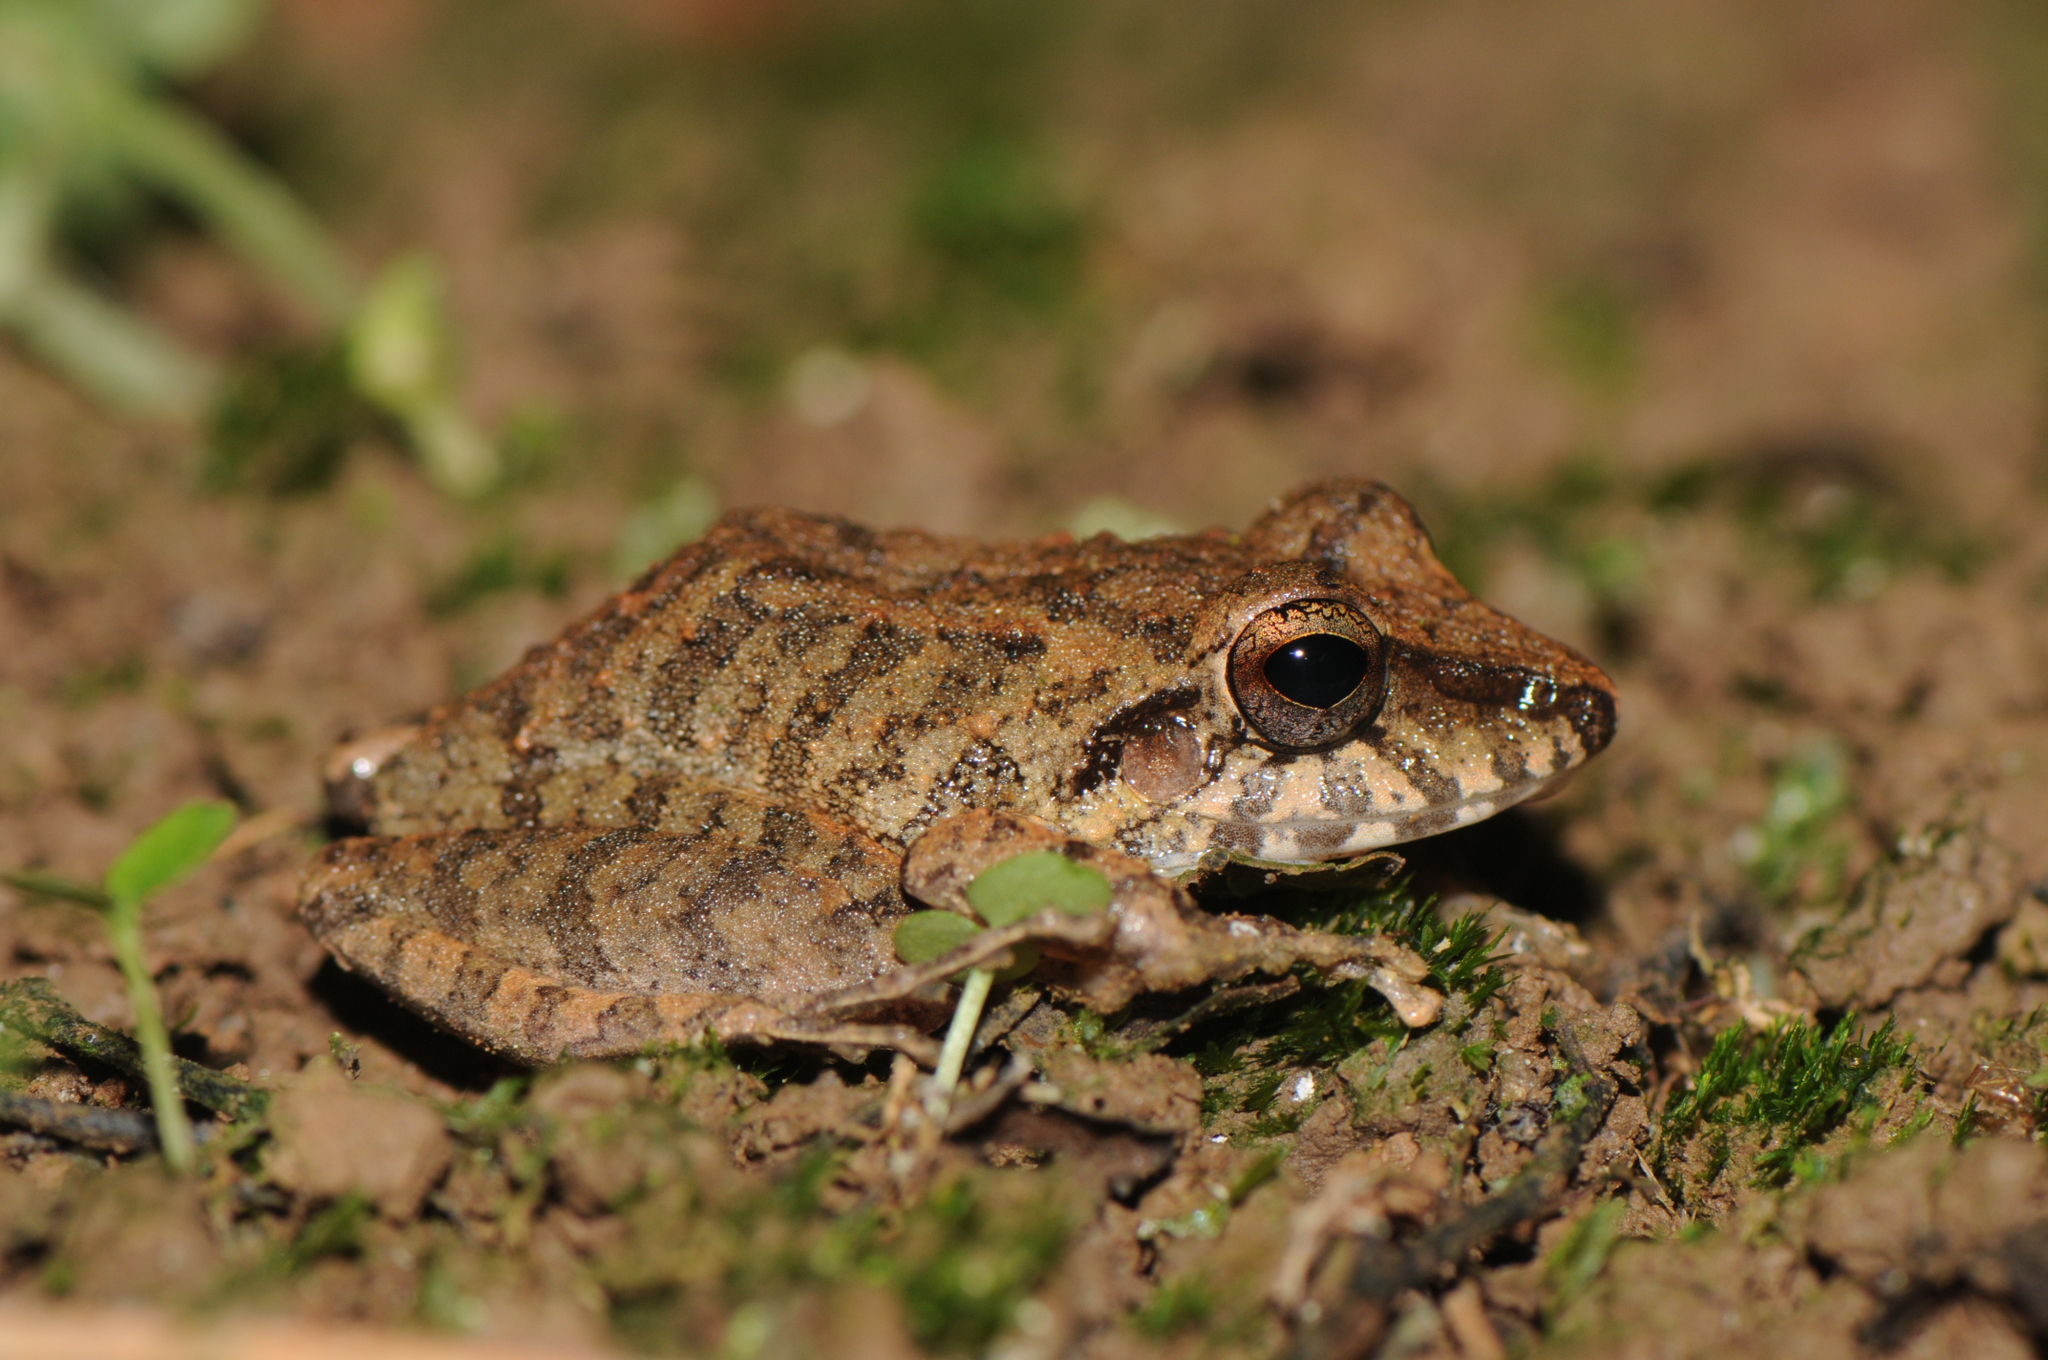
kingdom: Animalia
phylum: Chordata
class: Amphibia
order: Anura
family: Craugastoridae
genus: Pristimantis
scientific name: Pristimantis fenestratus
